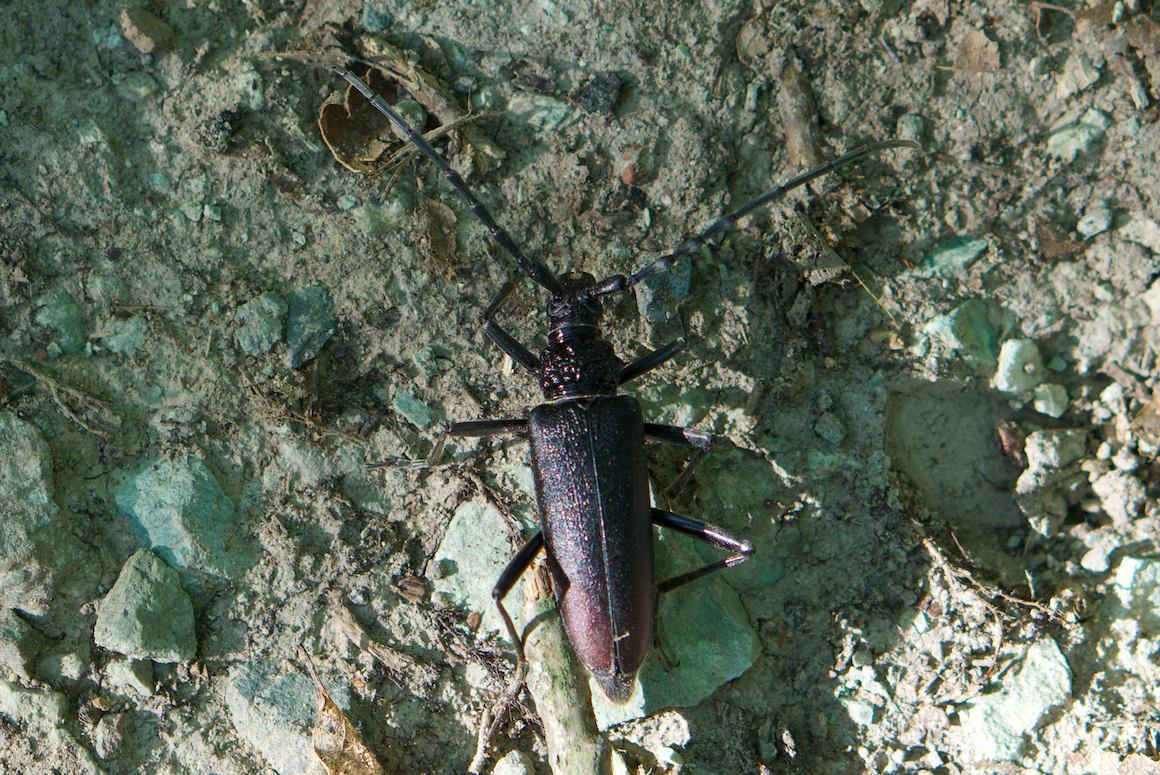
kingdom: Animalia
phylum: Arthropoda
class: Insecta
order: Coleoptera
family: Cerambycidae
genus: Cerambyx
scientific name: Cerambyx cerdo
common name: Cerambyx longicorn
